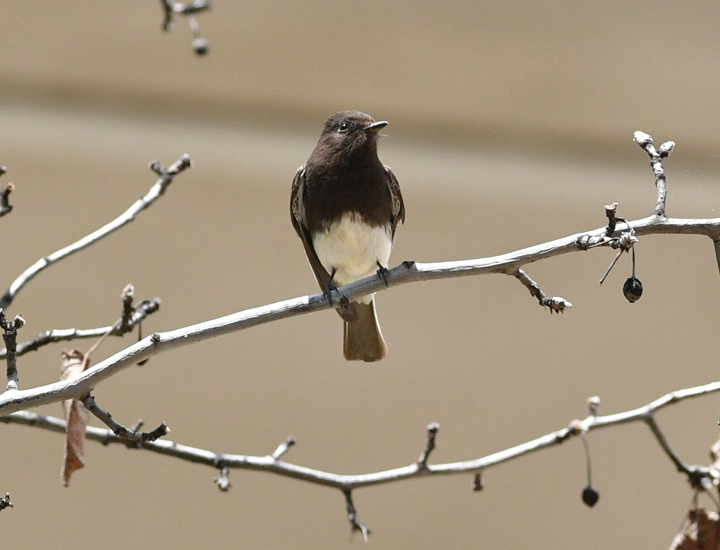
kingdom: Animalia
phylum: Chordata
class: Aves
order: Passeriformes
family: Tyrannidae
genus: Sayornis
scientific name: Sayornis nigricans
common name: Black phoebe
